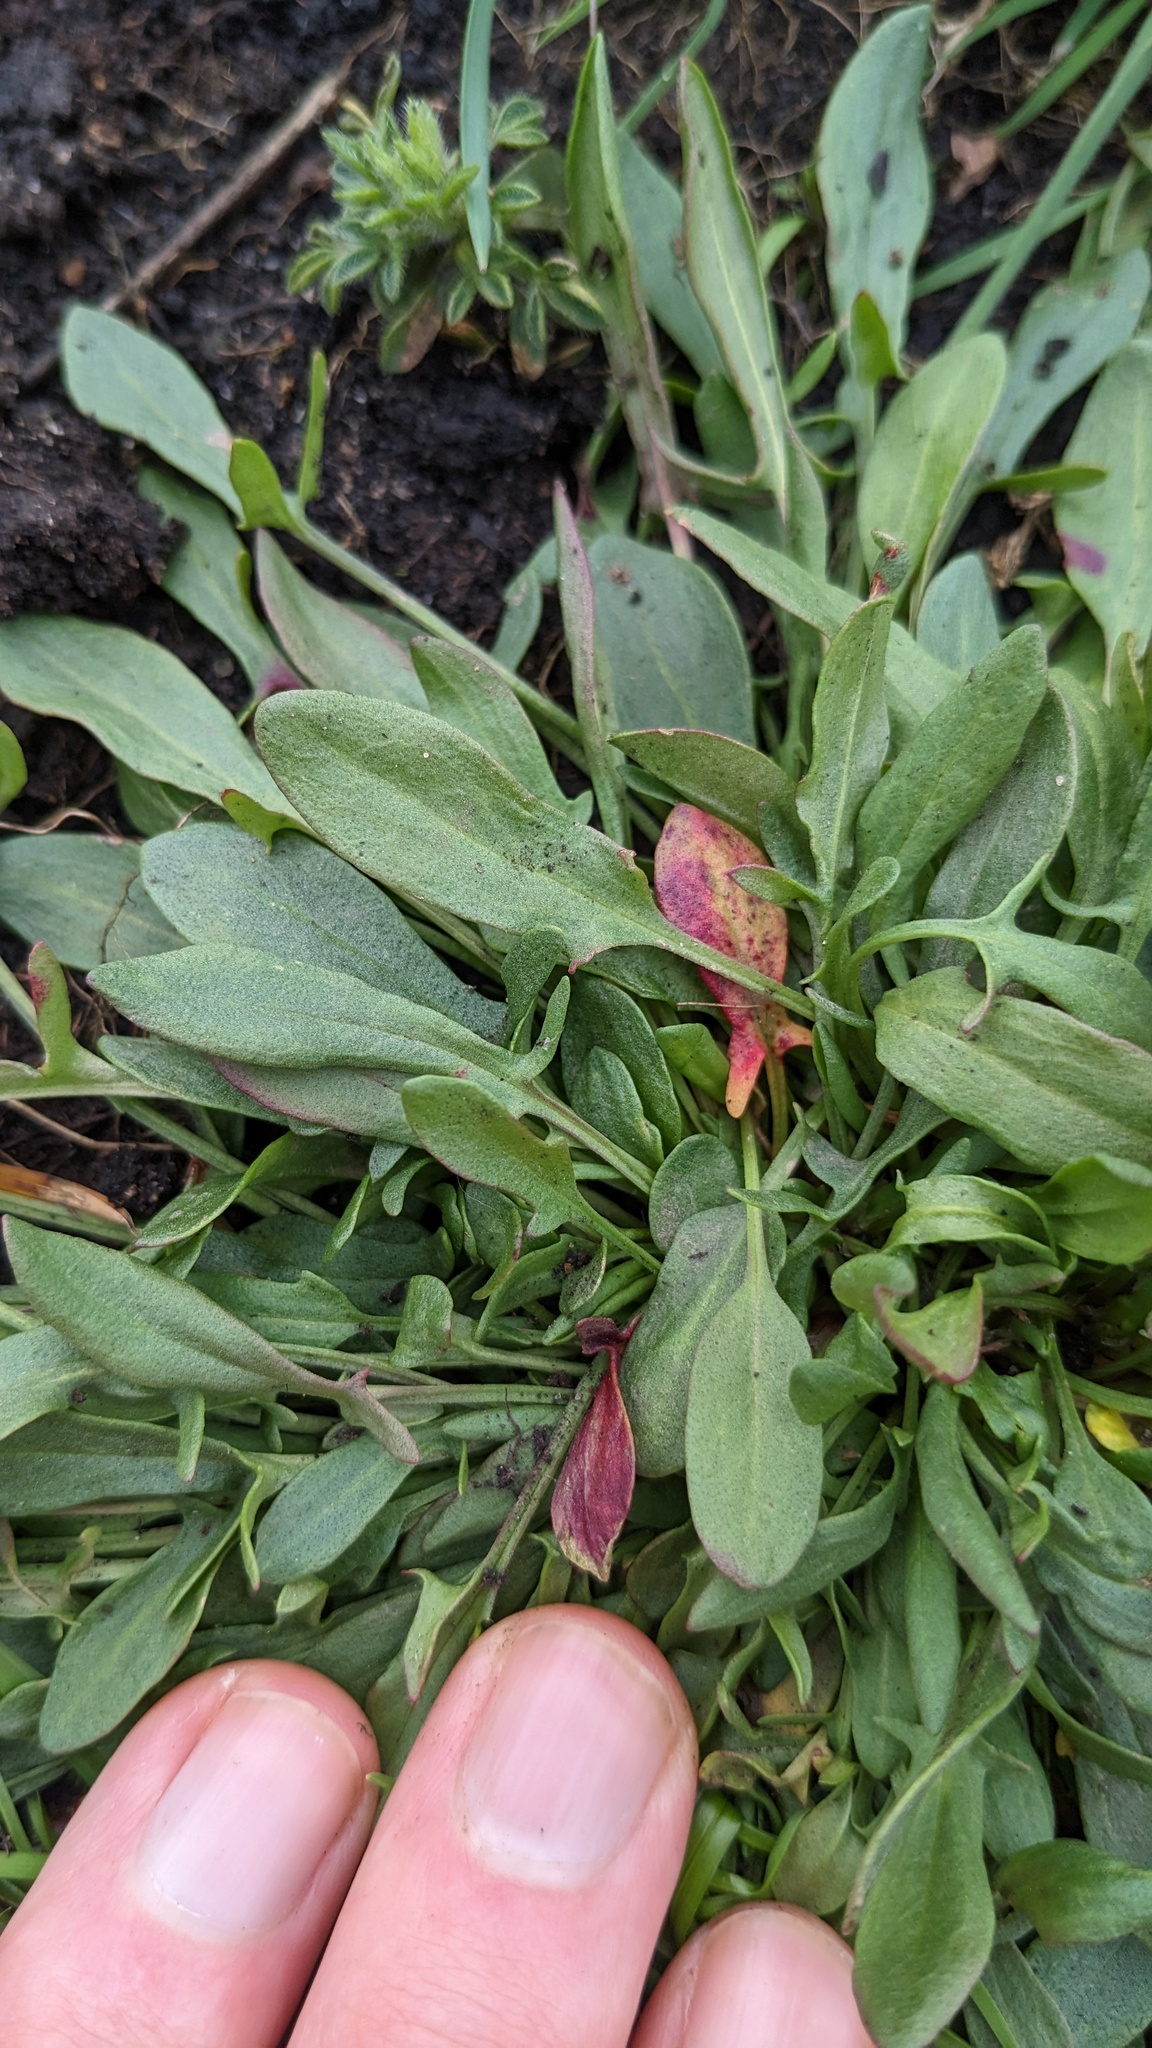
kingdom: Plantae
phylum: Tracheophyta
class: Magnoliopsida
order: Caryophyllales
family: Polygonaceae
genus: Rumex
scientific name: Rumex acetosella
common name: Common sheep sorrel
